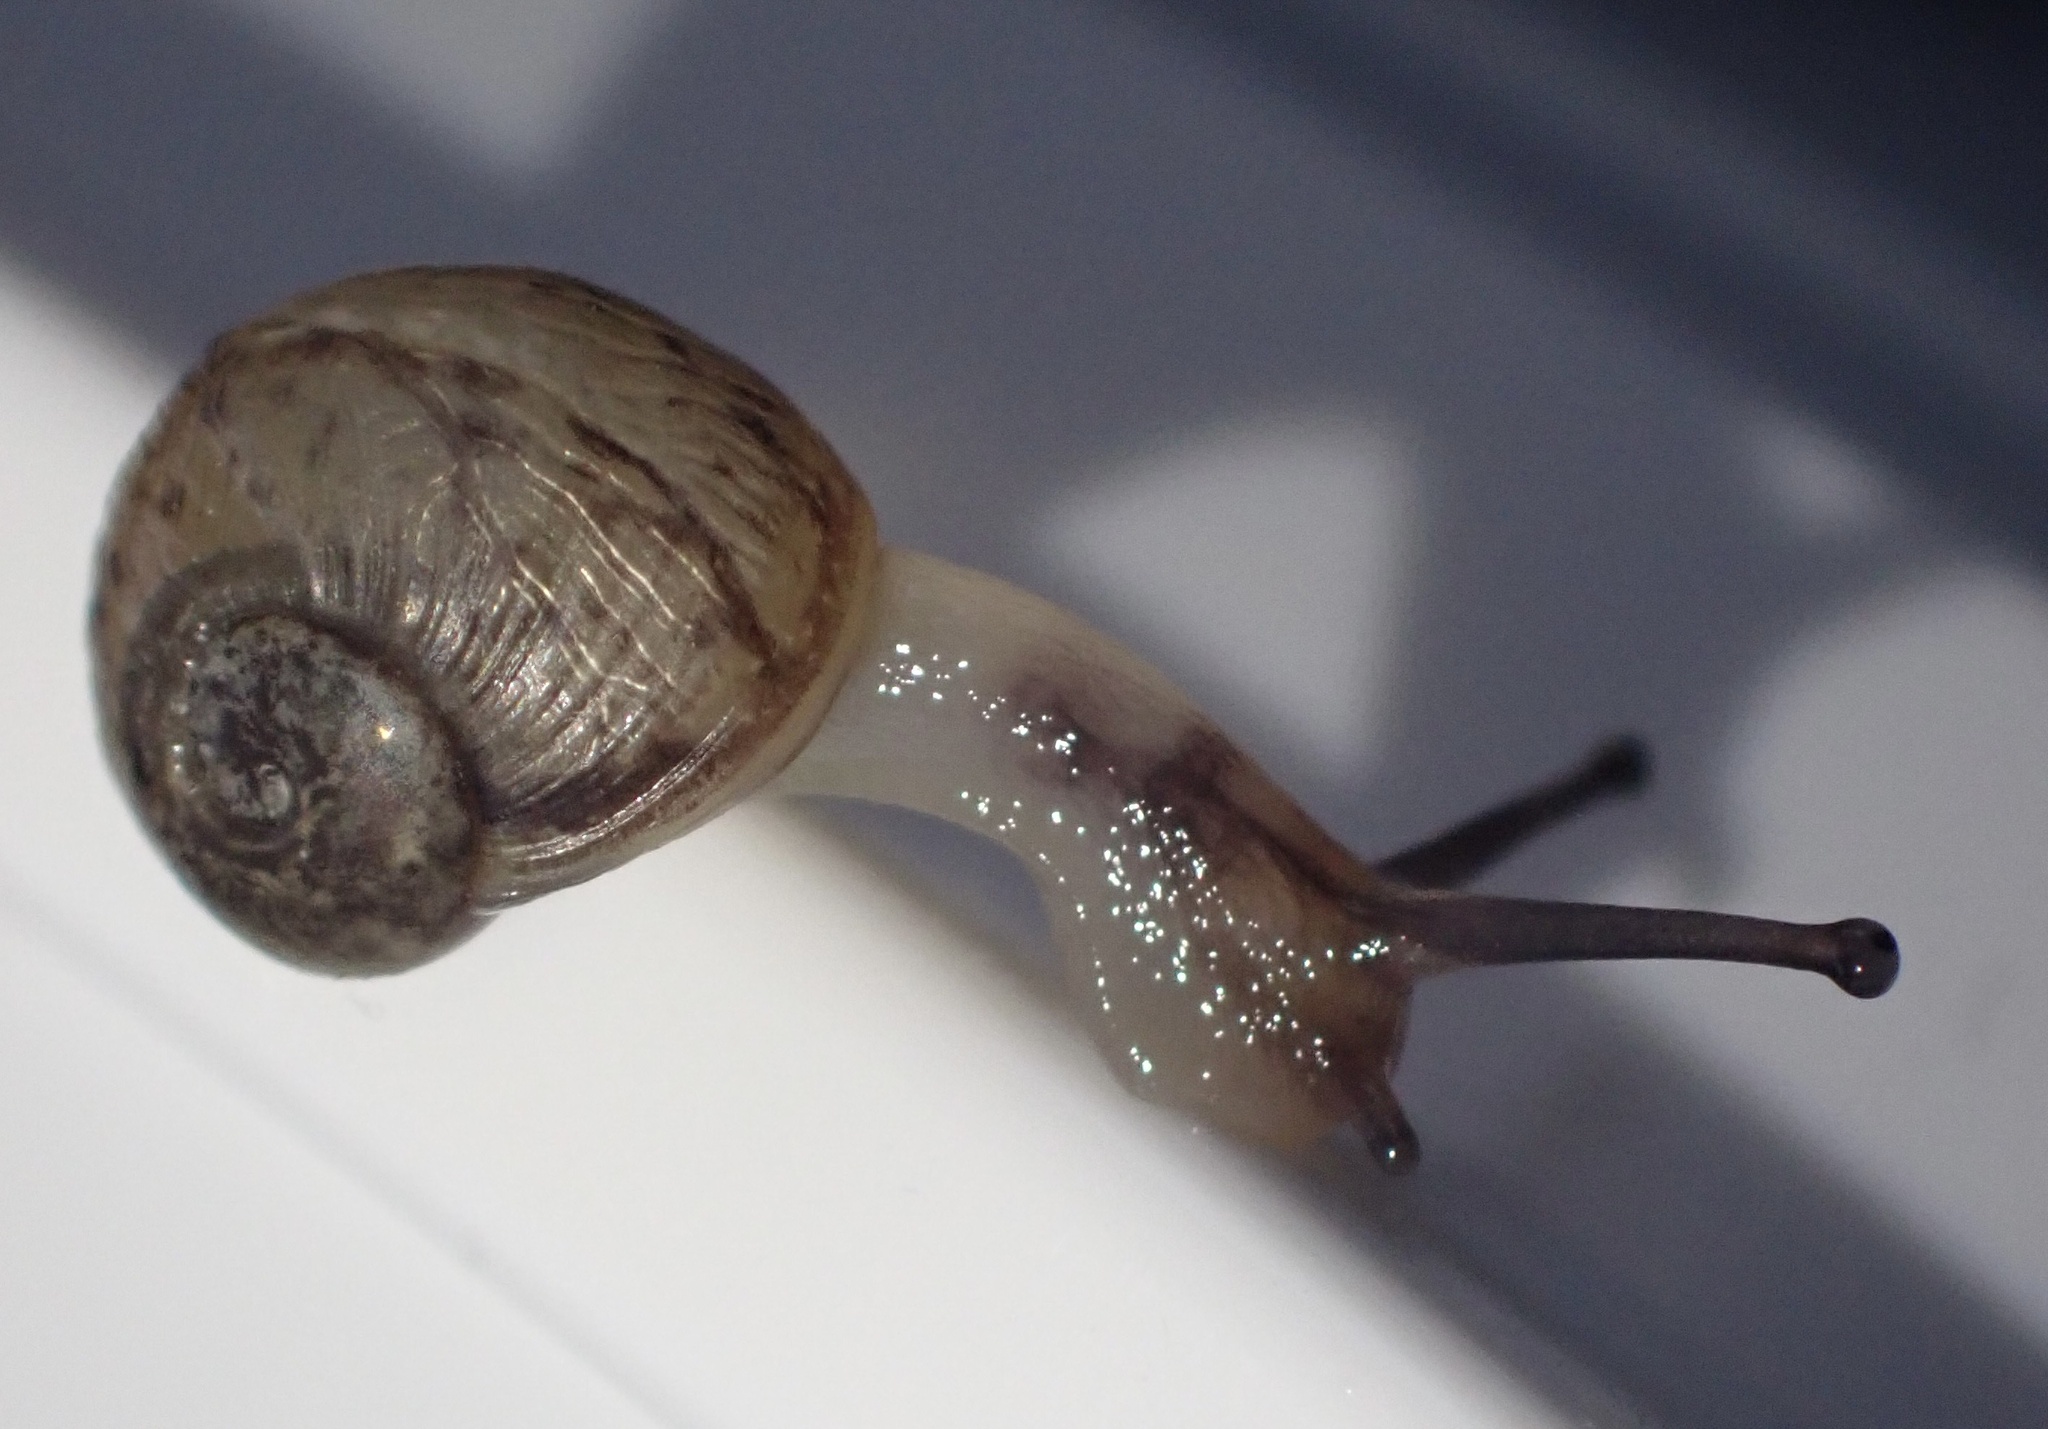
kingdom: Animalia
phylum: Mollusca
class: Gastropoda
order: Stylommatophora
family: Helicidae
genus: Cornu
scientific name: Cornu aspersum
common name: Brown garden snail
